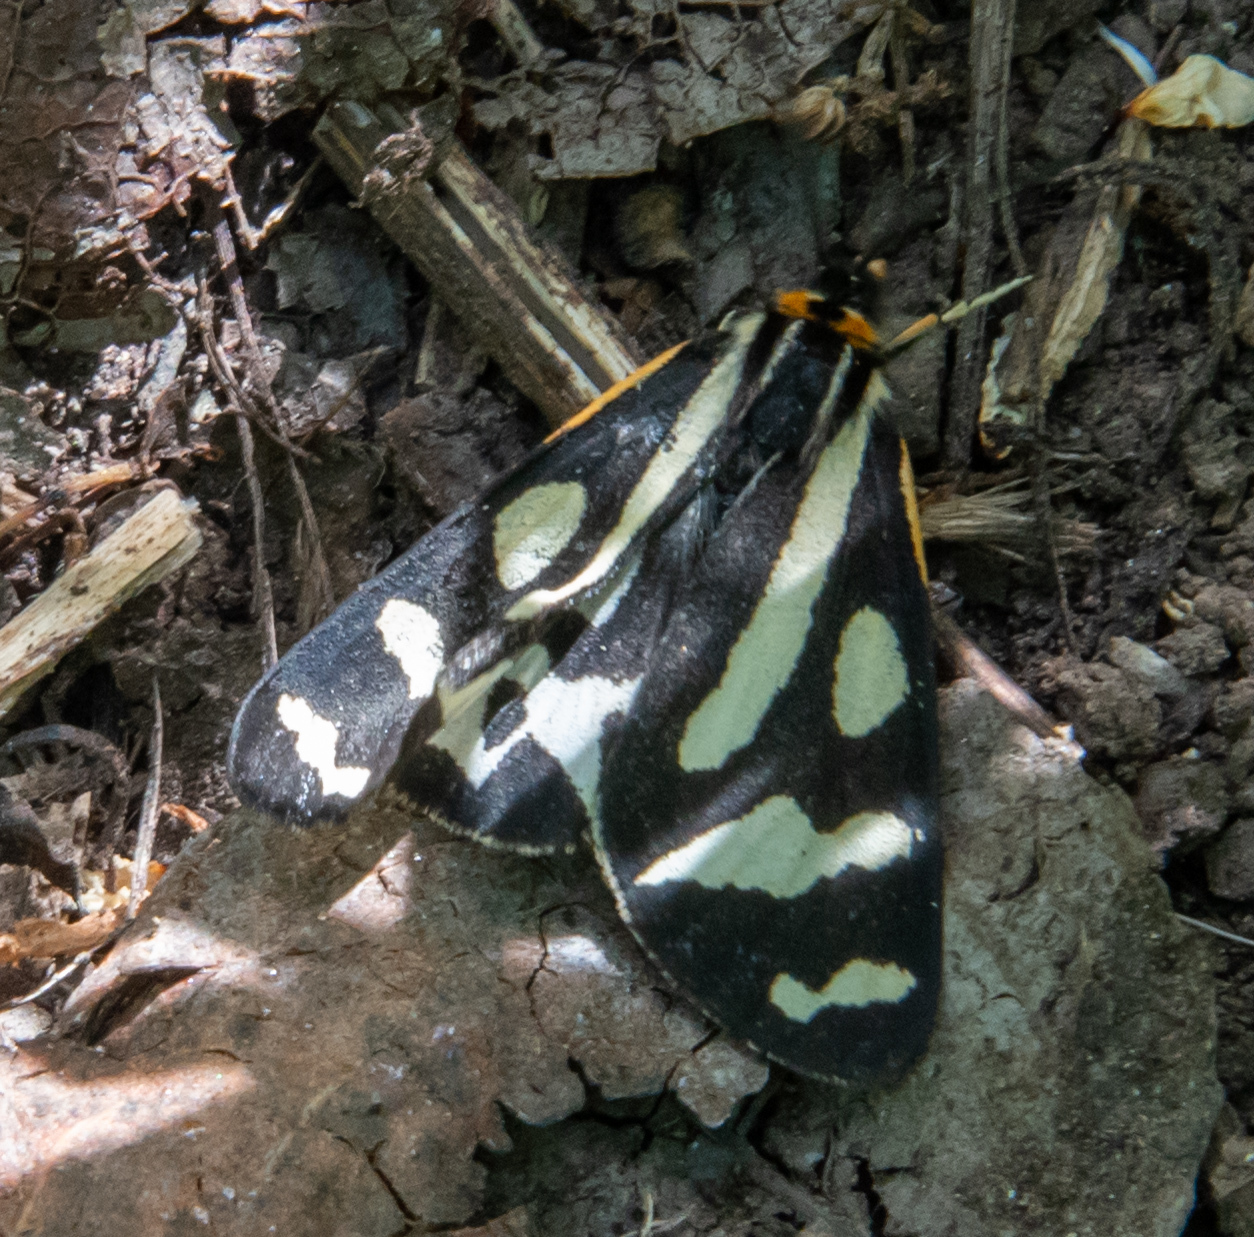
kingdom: Animalia
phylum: Arthropoda
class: Insecta
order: Lepidoptera
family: Erebidae
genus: Parasemia
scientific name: Parasemia plantaginis
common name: Wood tiger
